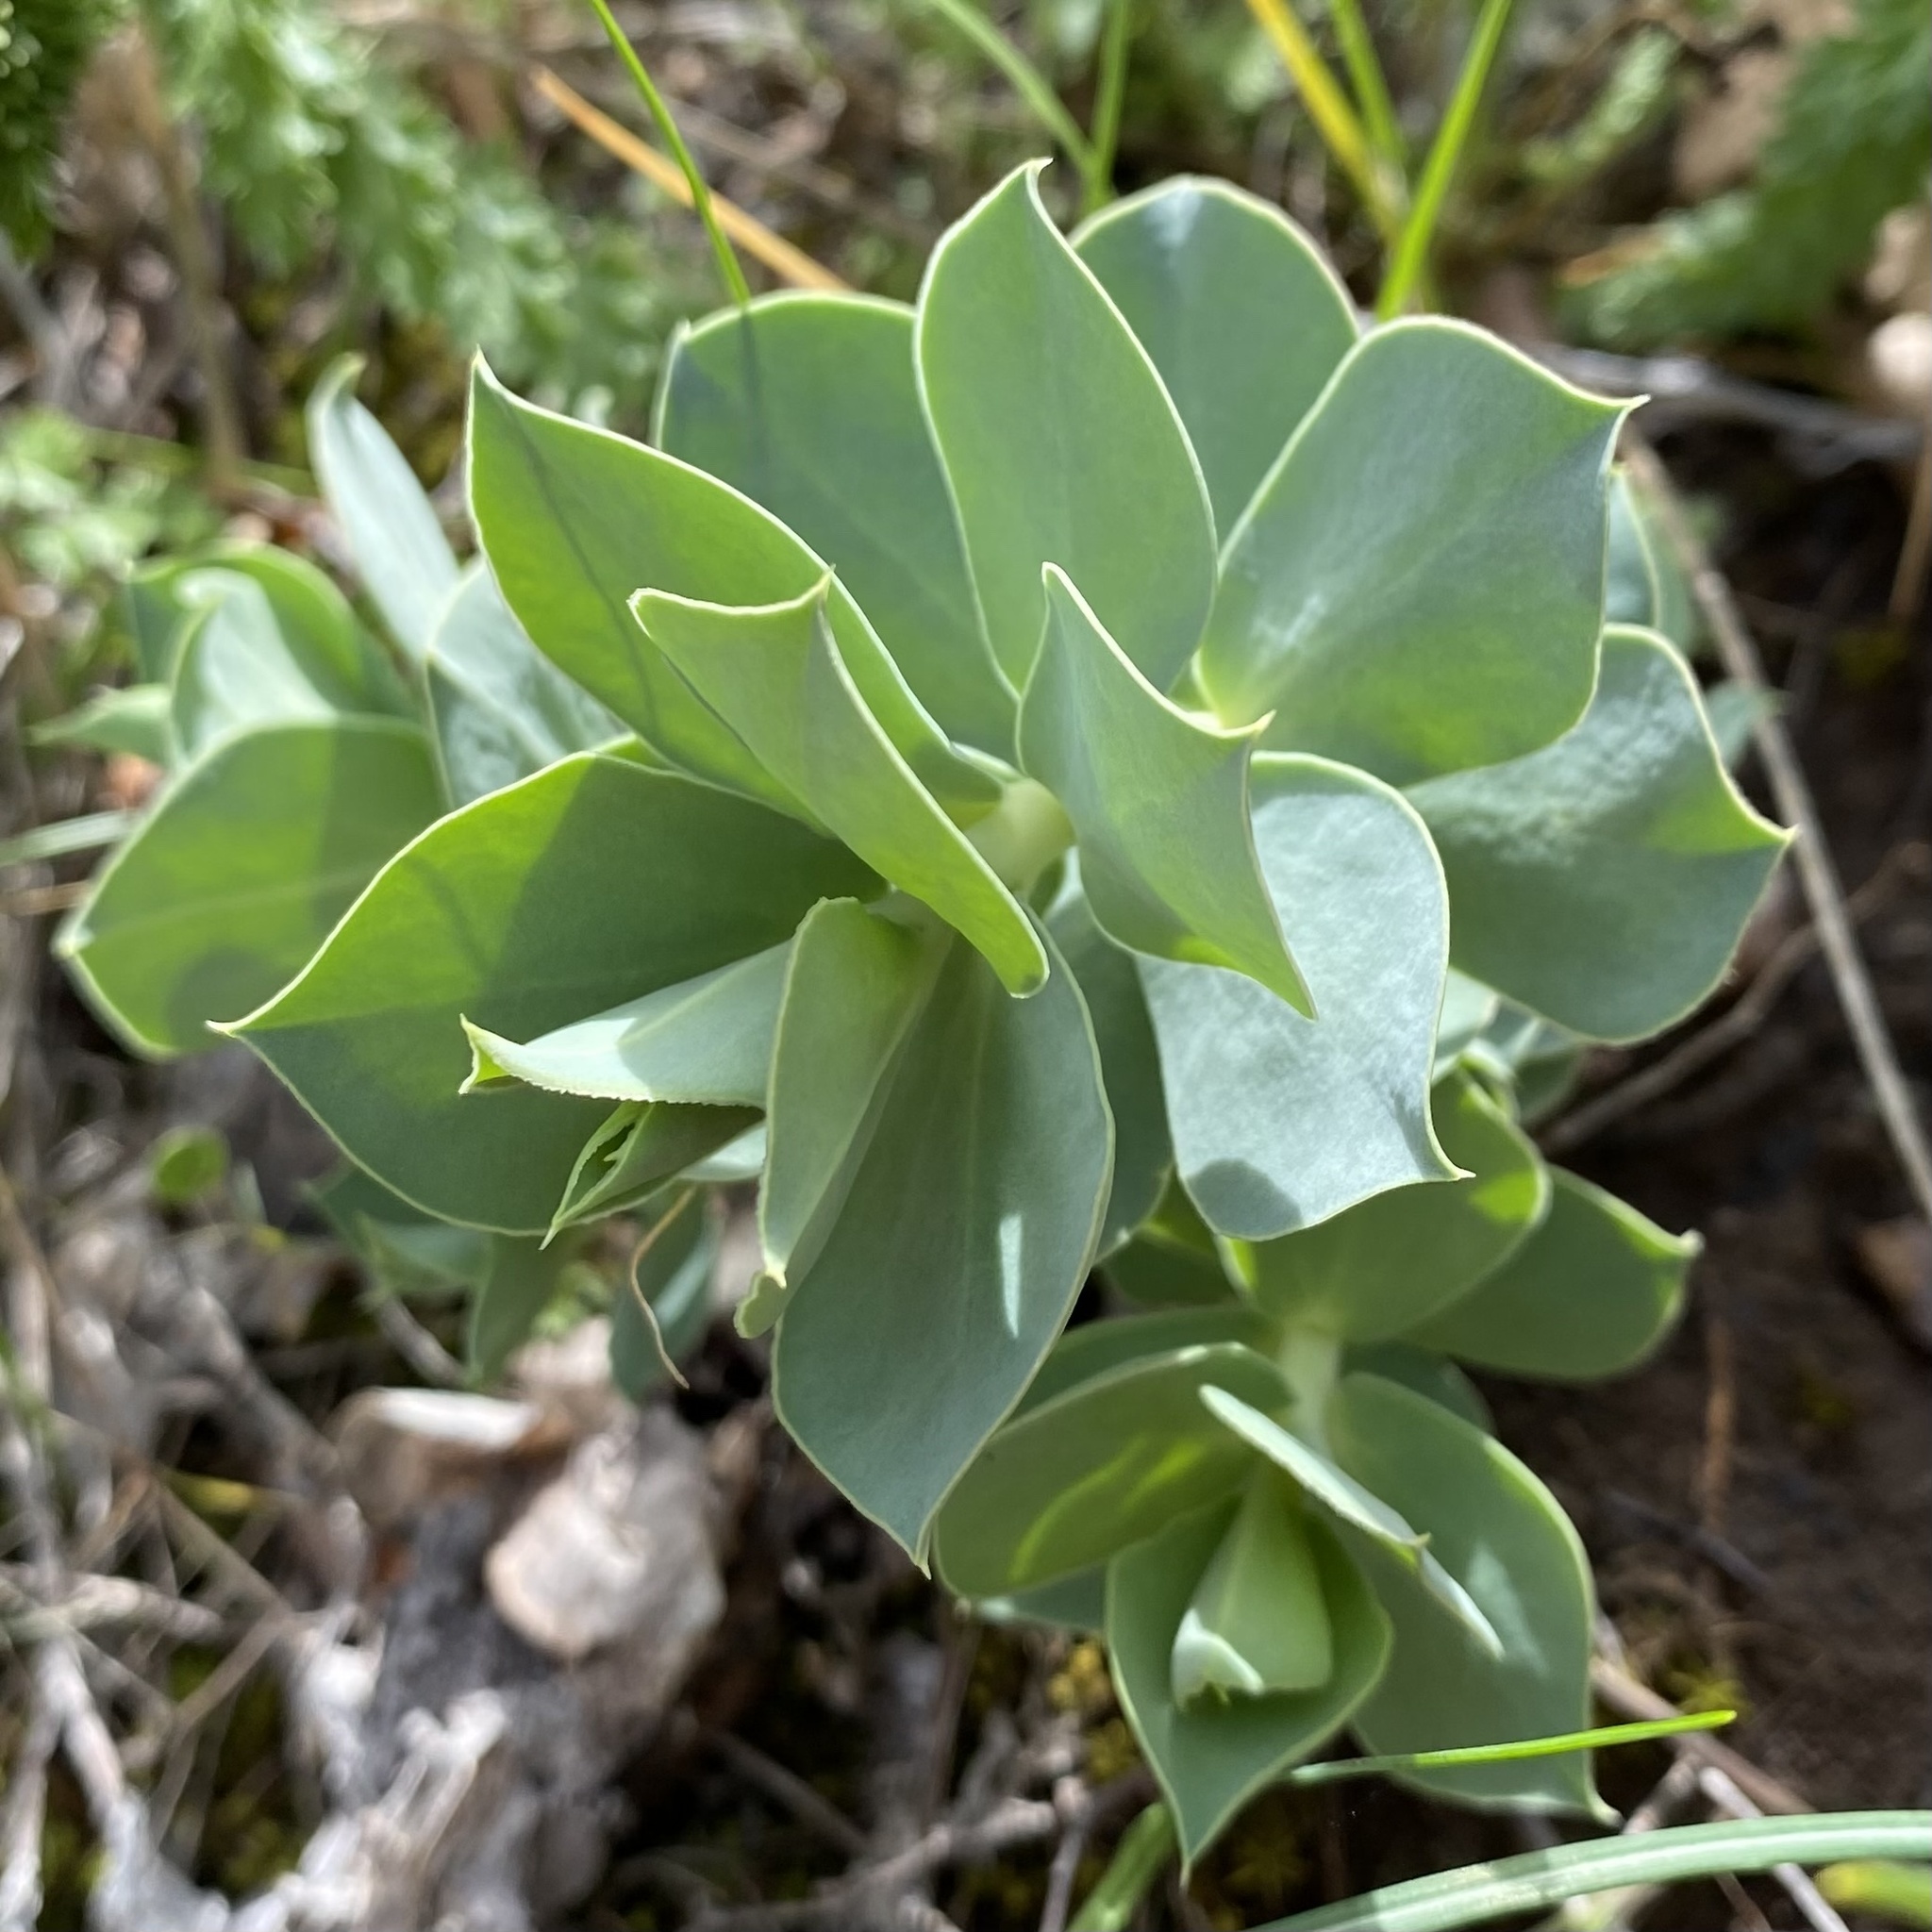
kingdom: Plantae
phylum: Tracheophyta
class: Magnoliopsida
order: Malpighiales
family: Euphorbiaceae
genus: Euphorbia
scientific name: Euphorbia myrsinites
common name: Myrtle spurge
